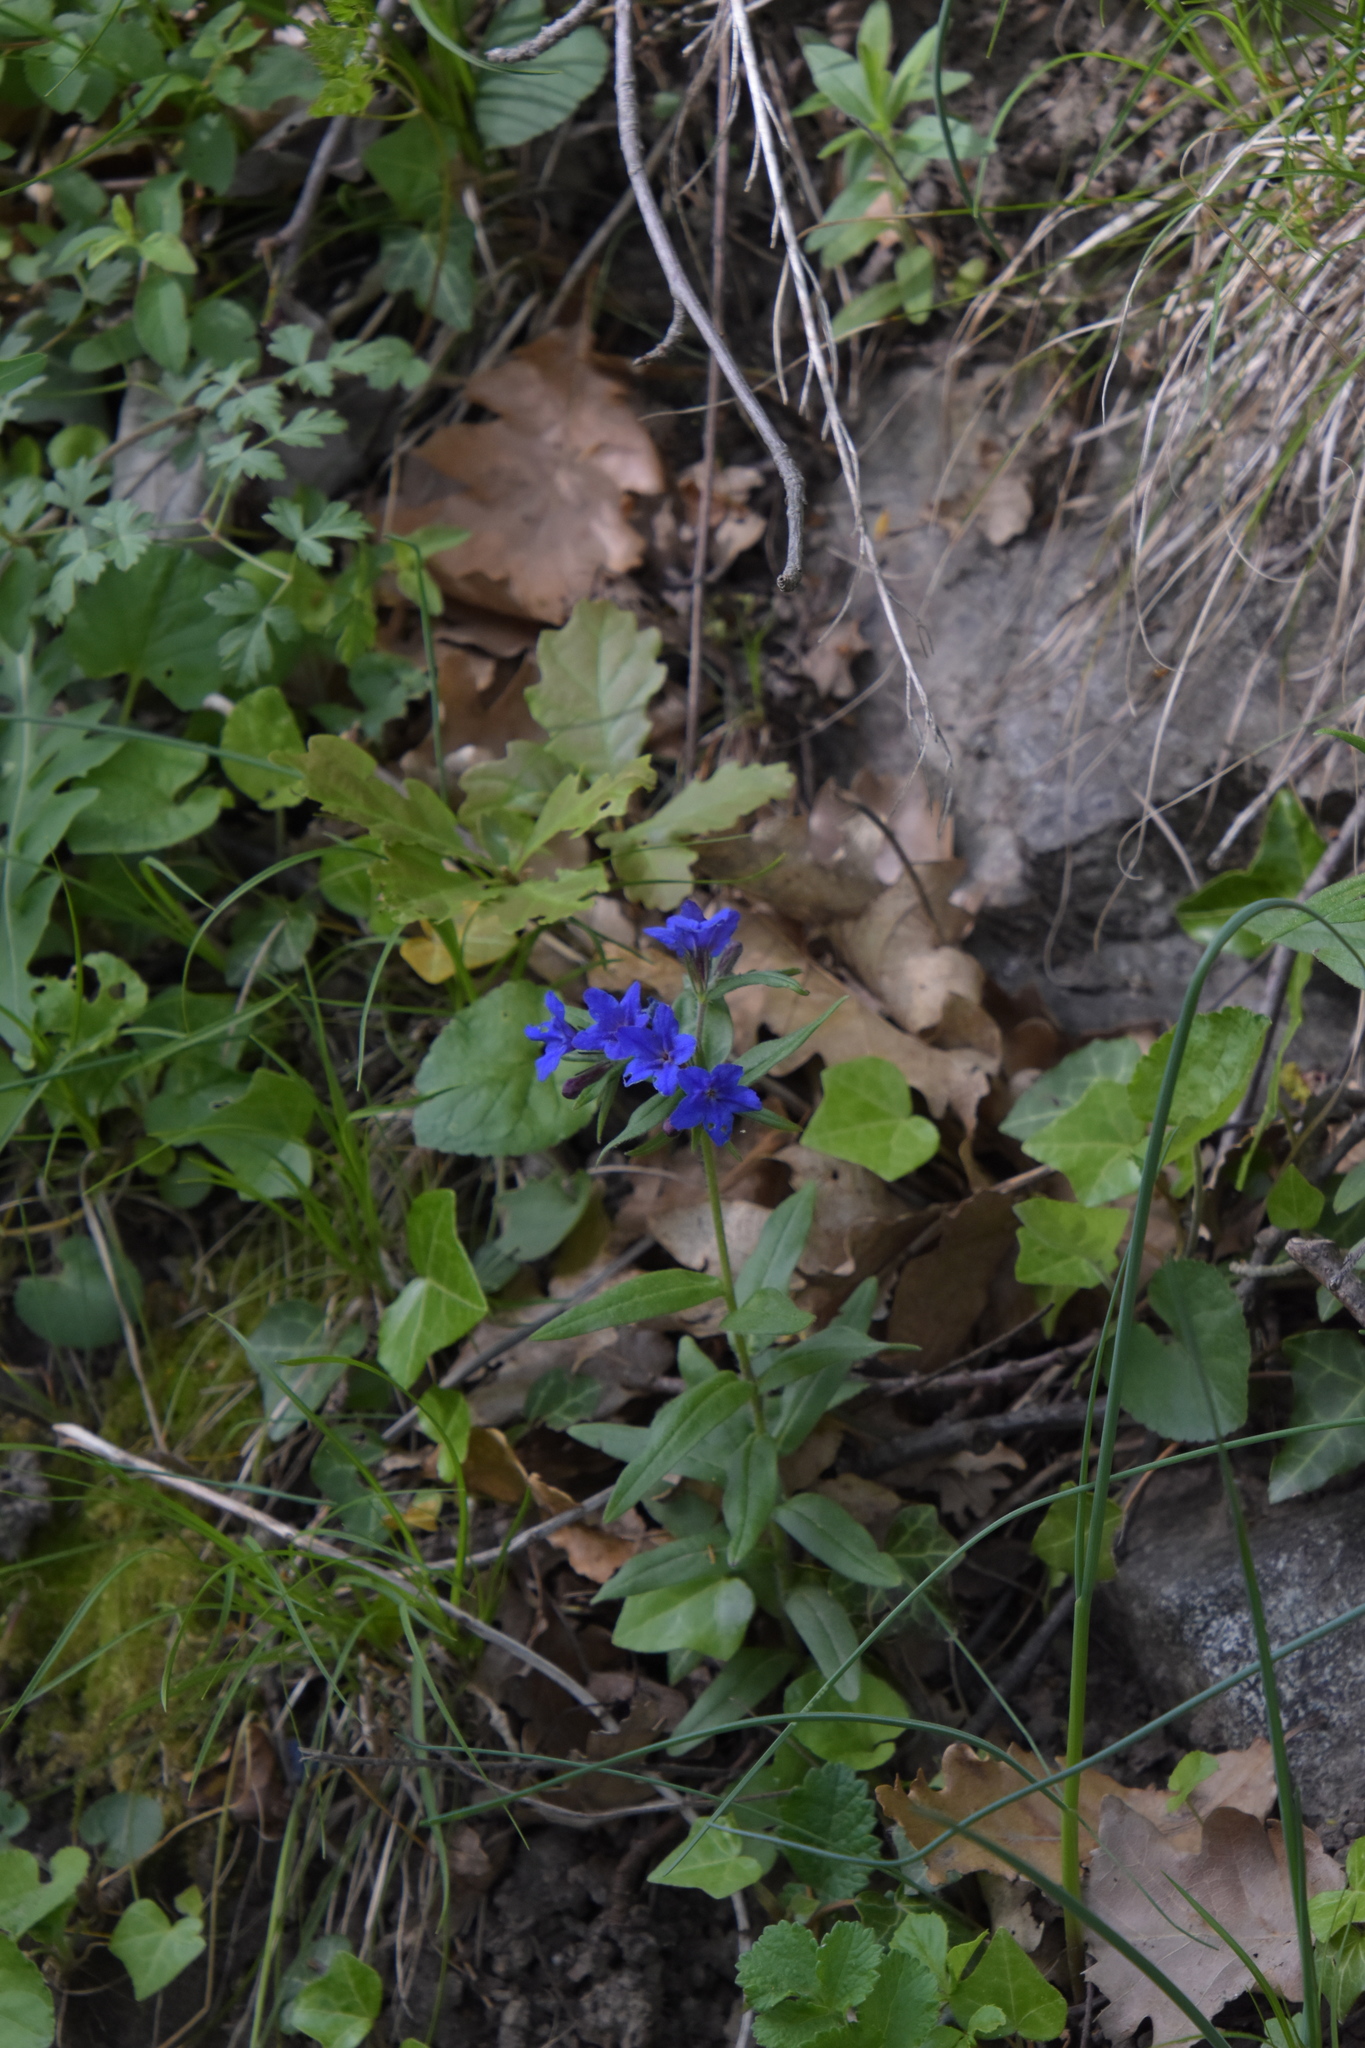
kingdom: Plantae
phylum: Tracheophyta
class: Magnoliopsida
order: Boraginales
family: Boraginaceae
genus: Aegonychon
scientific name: Aegonychon purpurocaeruleum
